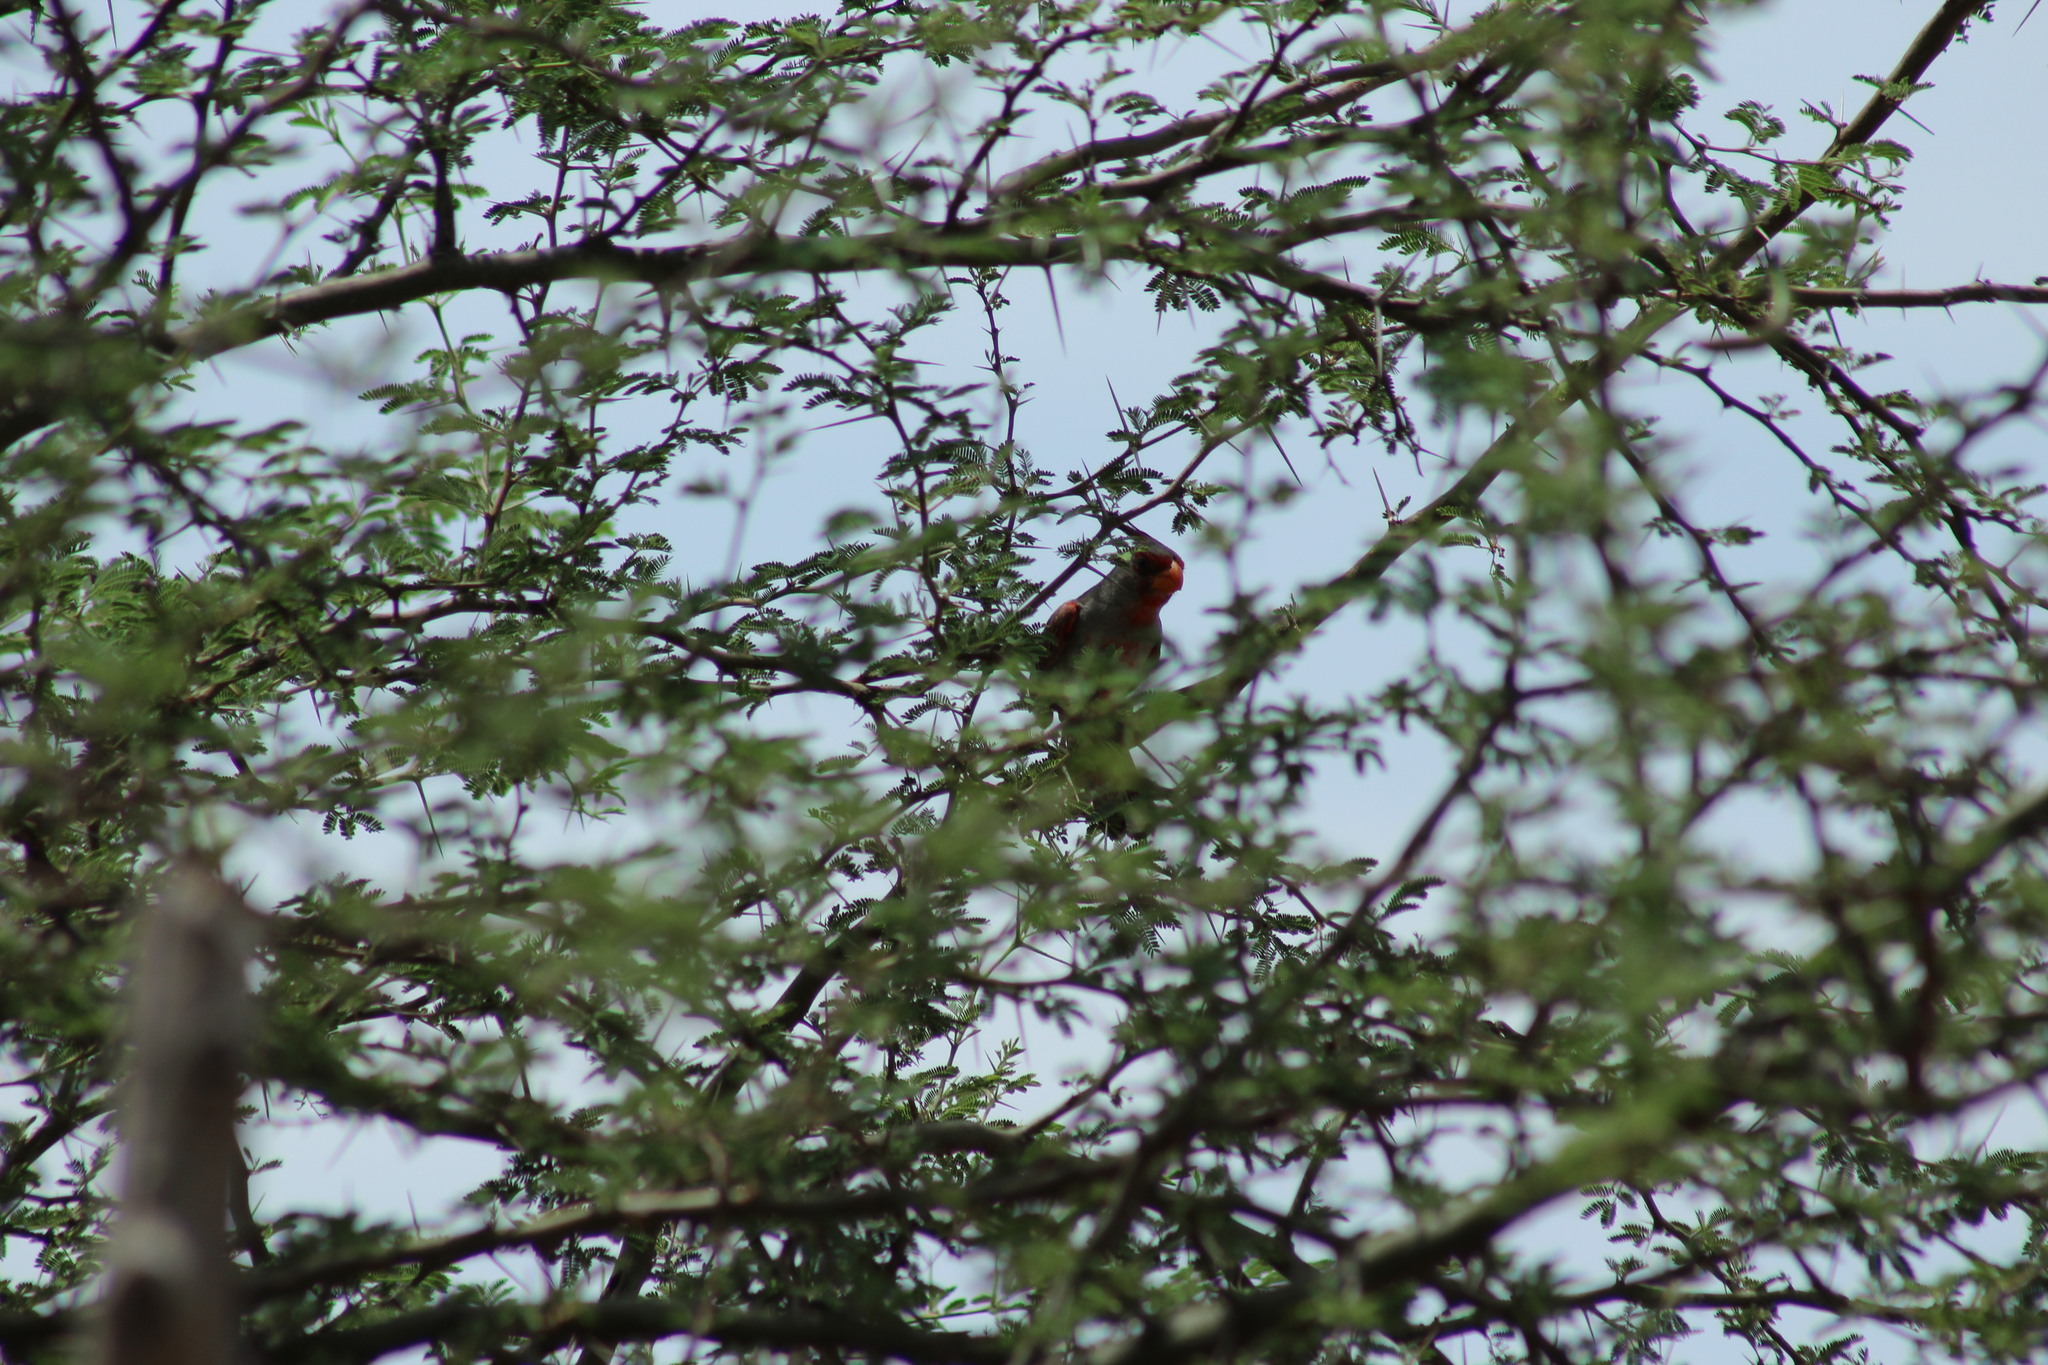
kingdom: Animalia
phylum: Chordata
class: Aves
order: Passeriformes
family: Cardinalidae
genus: Cardinalis
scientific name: Cardinalis sinuatus
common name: Pyrrhuloxia
